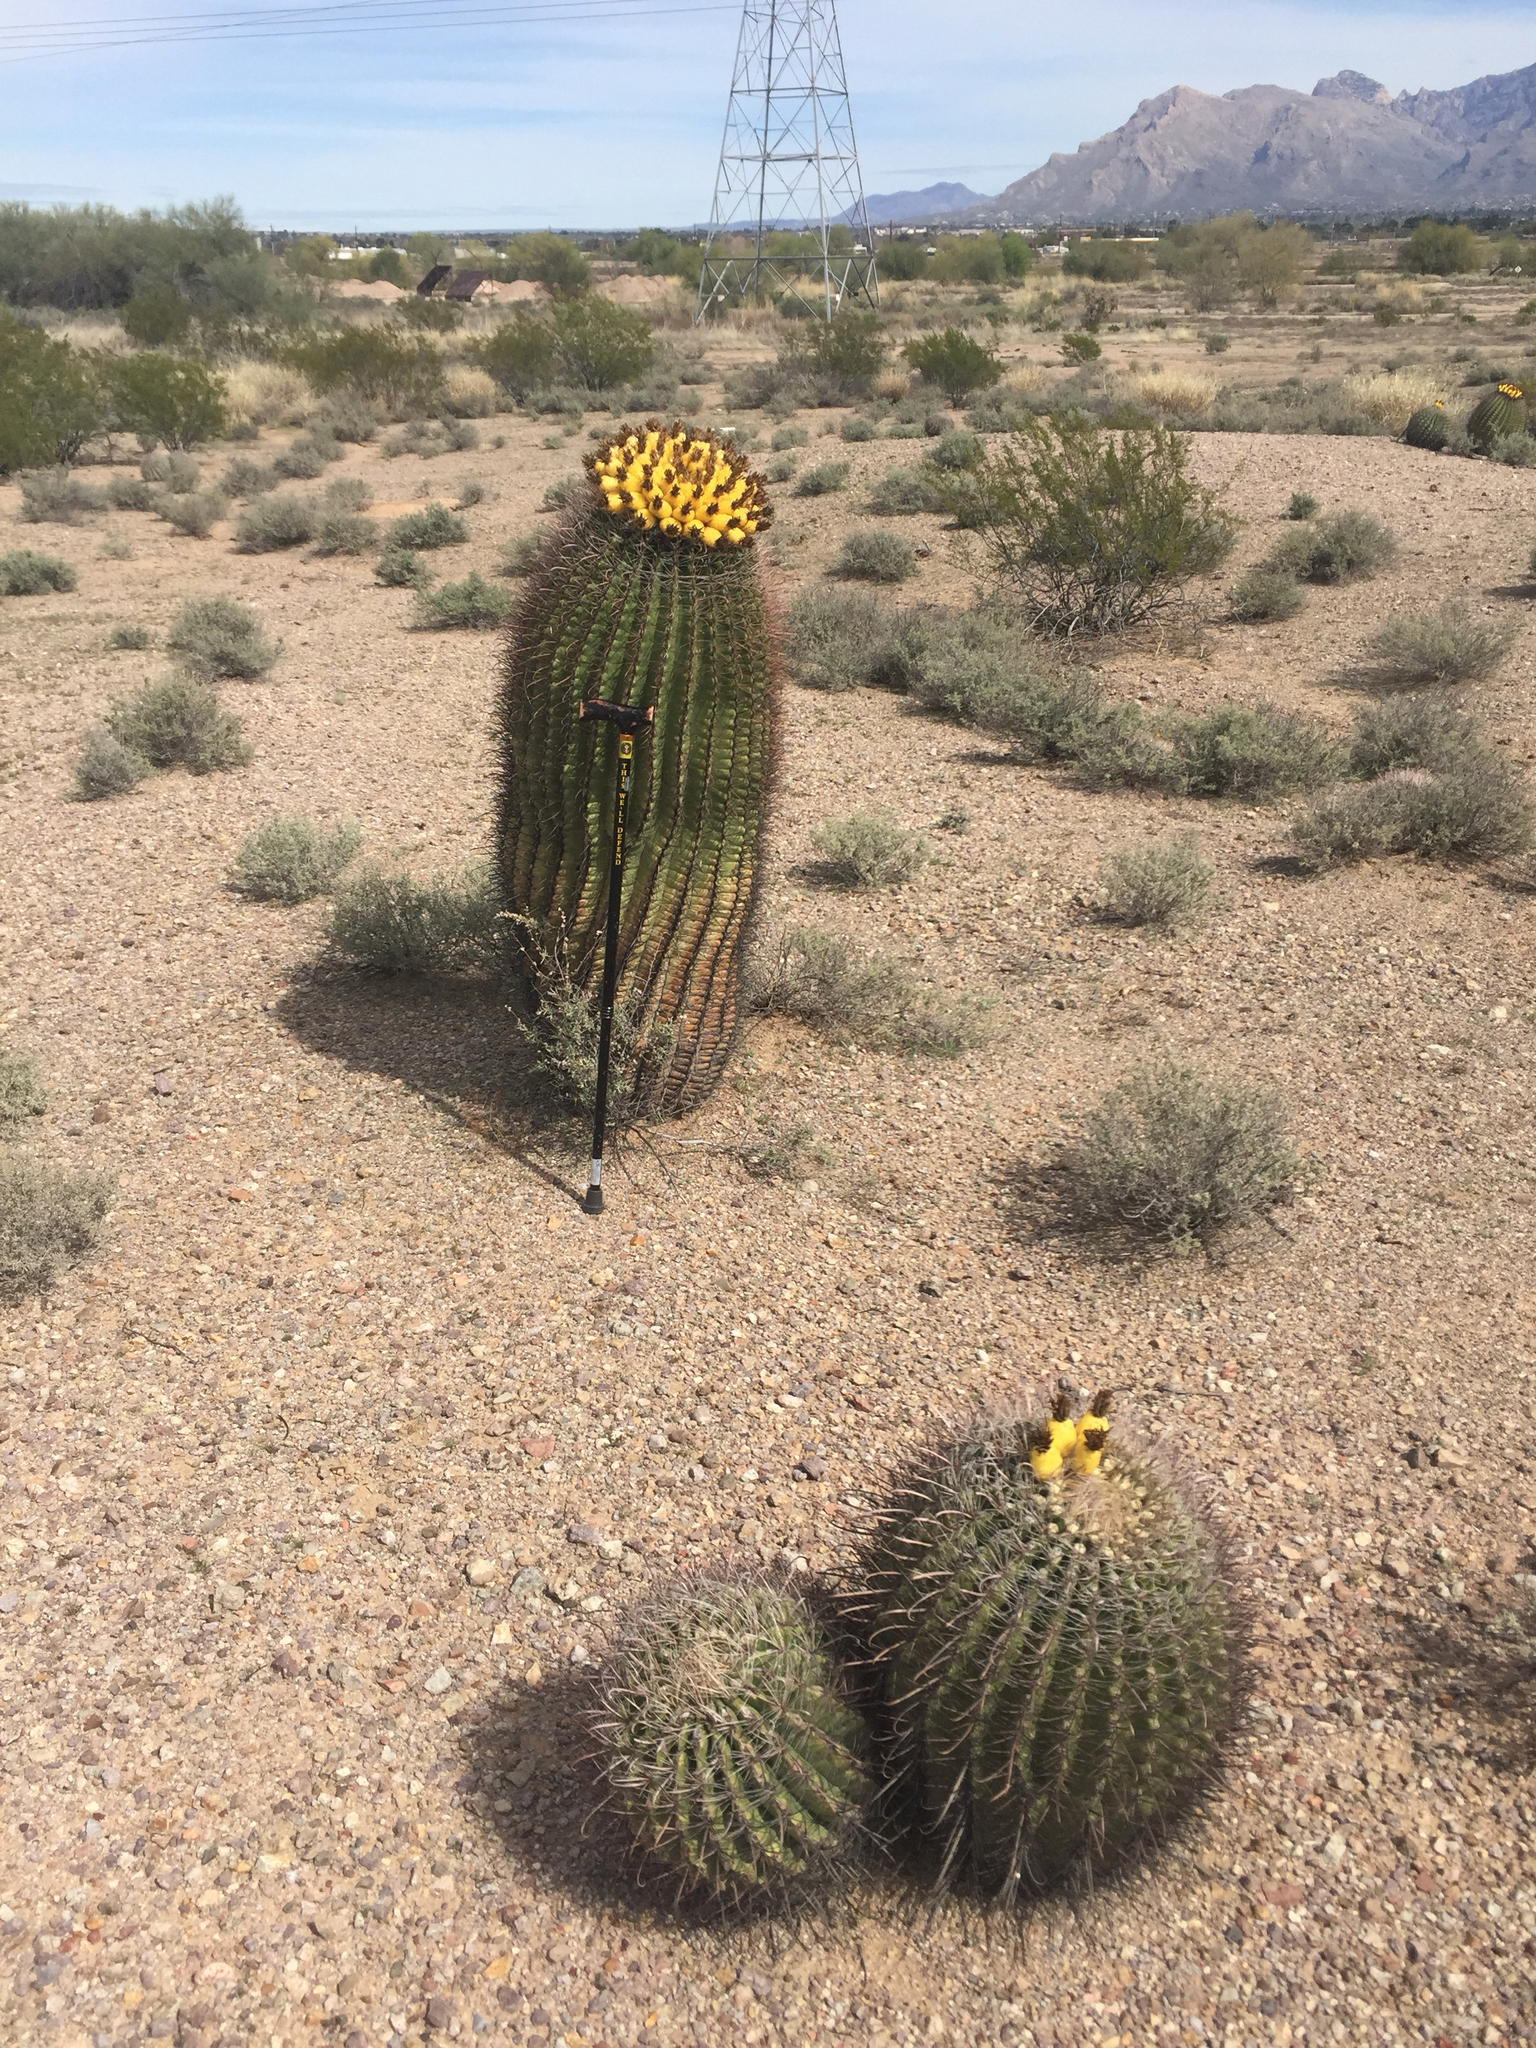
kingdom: Plantae
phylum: Tracheophyta
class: Magnoliopsida
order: Caryophyllales
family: Cactaceae
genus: Ferocactus
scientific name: Ferocactus wislizeni
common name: Candy barrel cactus
